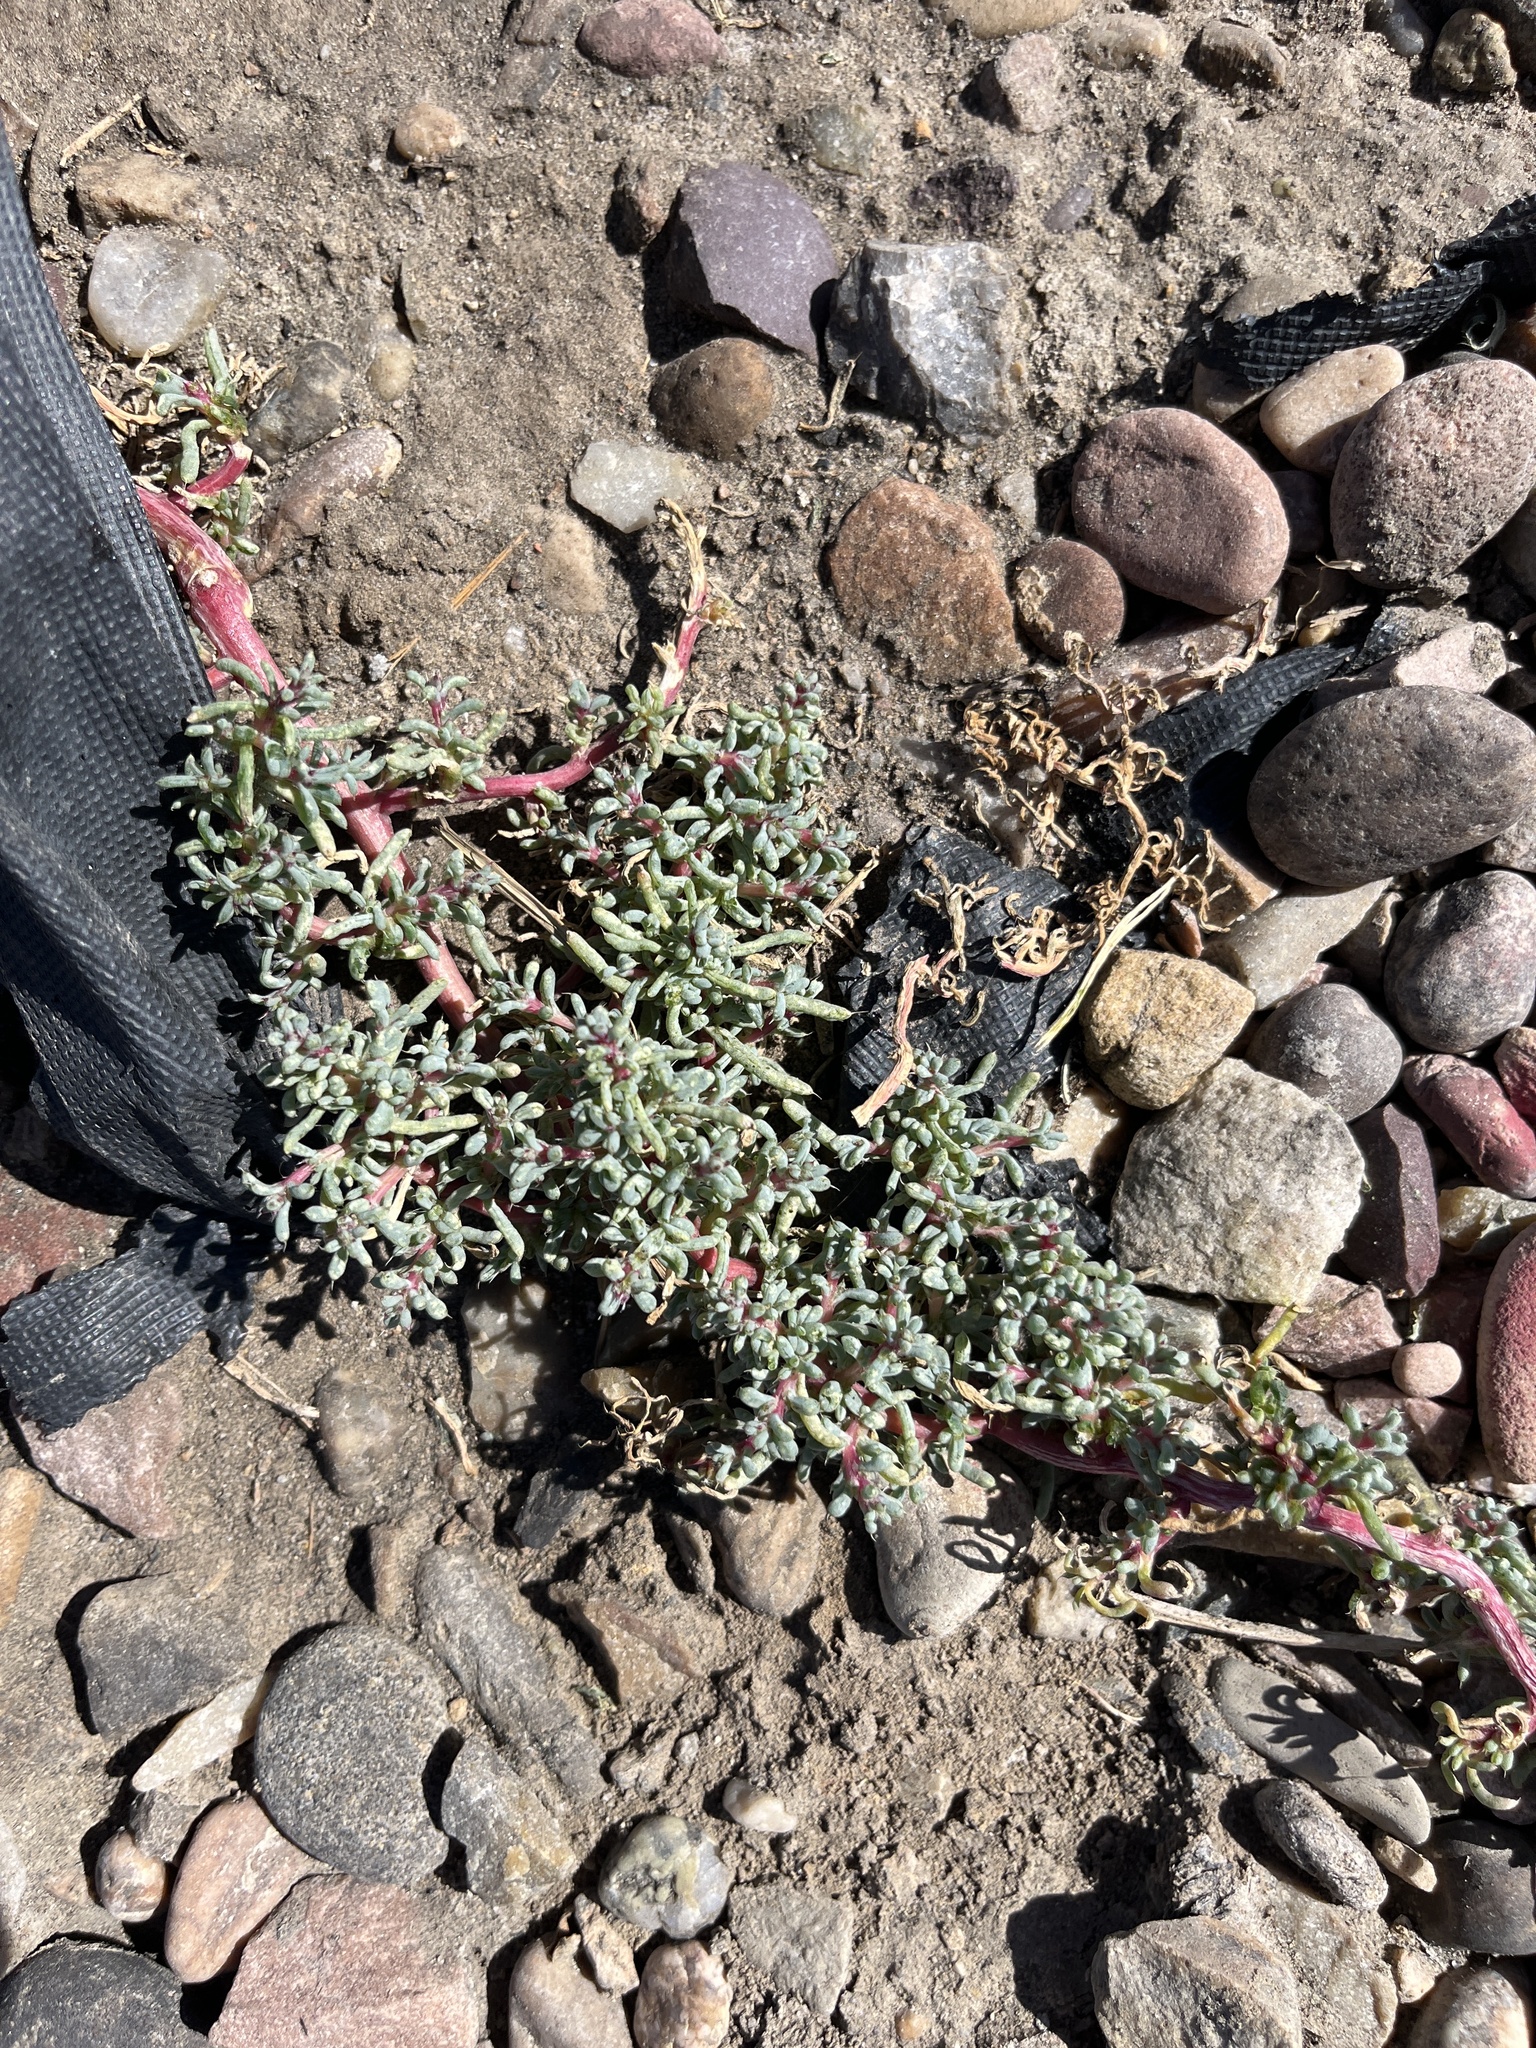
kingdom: Plantae
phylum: Tracheophyta
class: Magnoliopsida
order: Caryophyllales
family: Amaranthaceae
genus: Halogeton
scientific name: Halogeton glomeratus
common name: Saltlover
